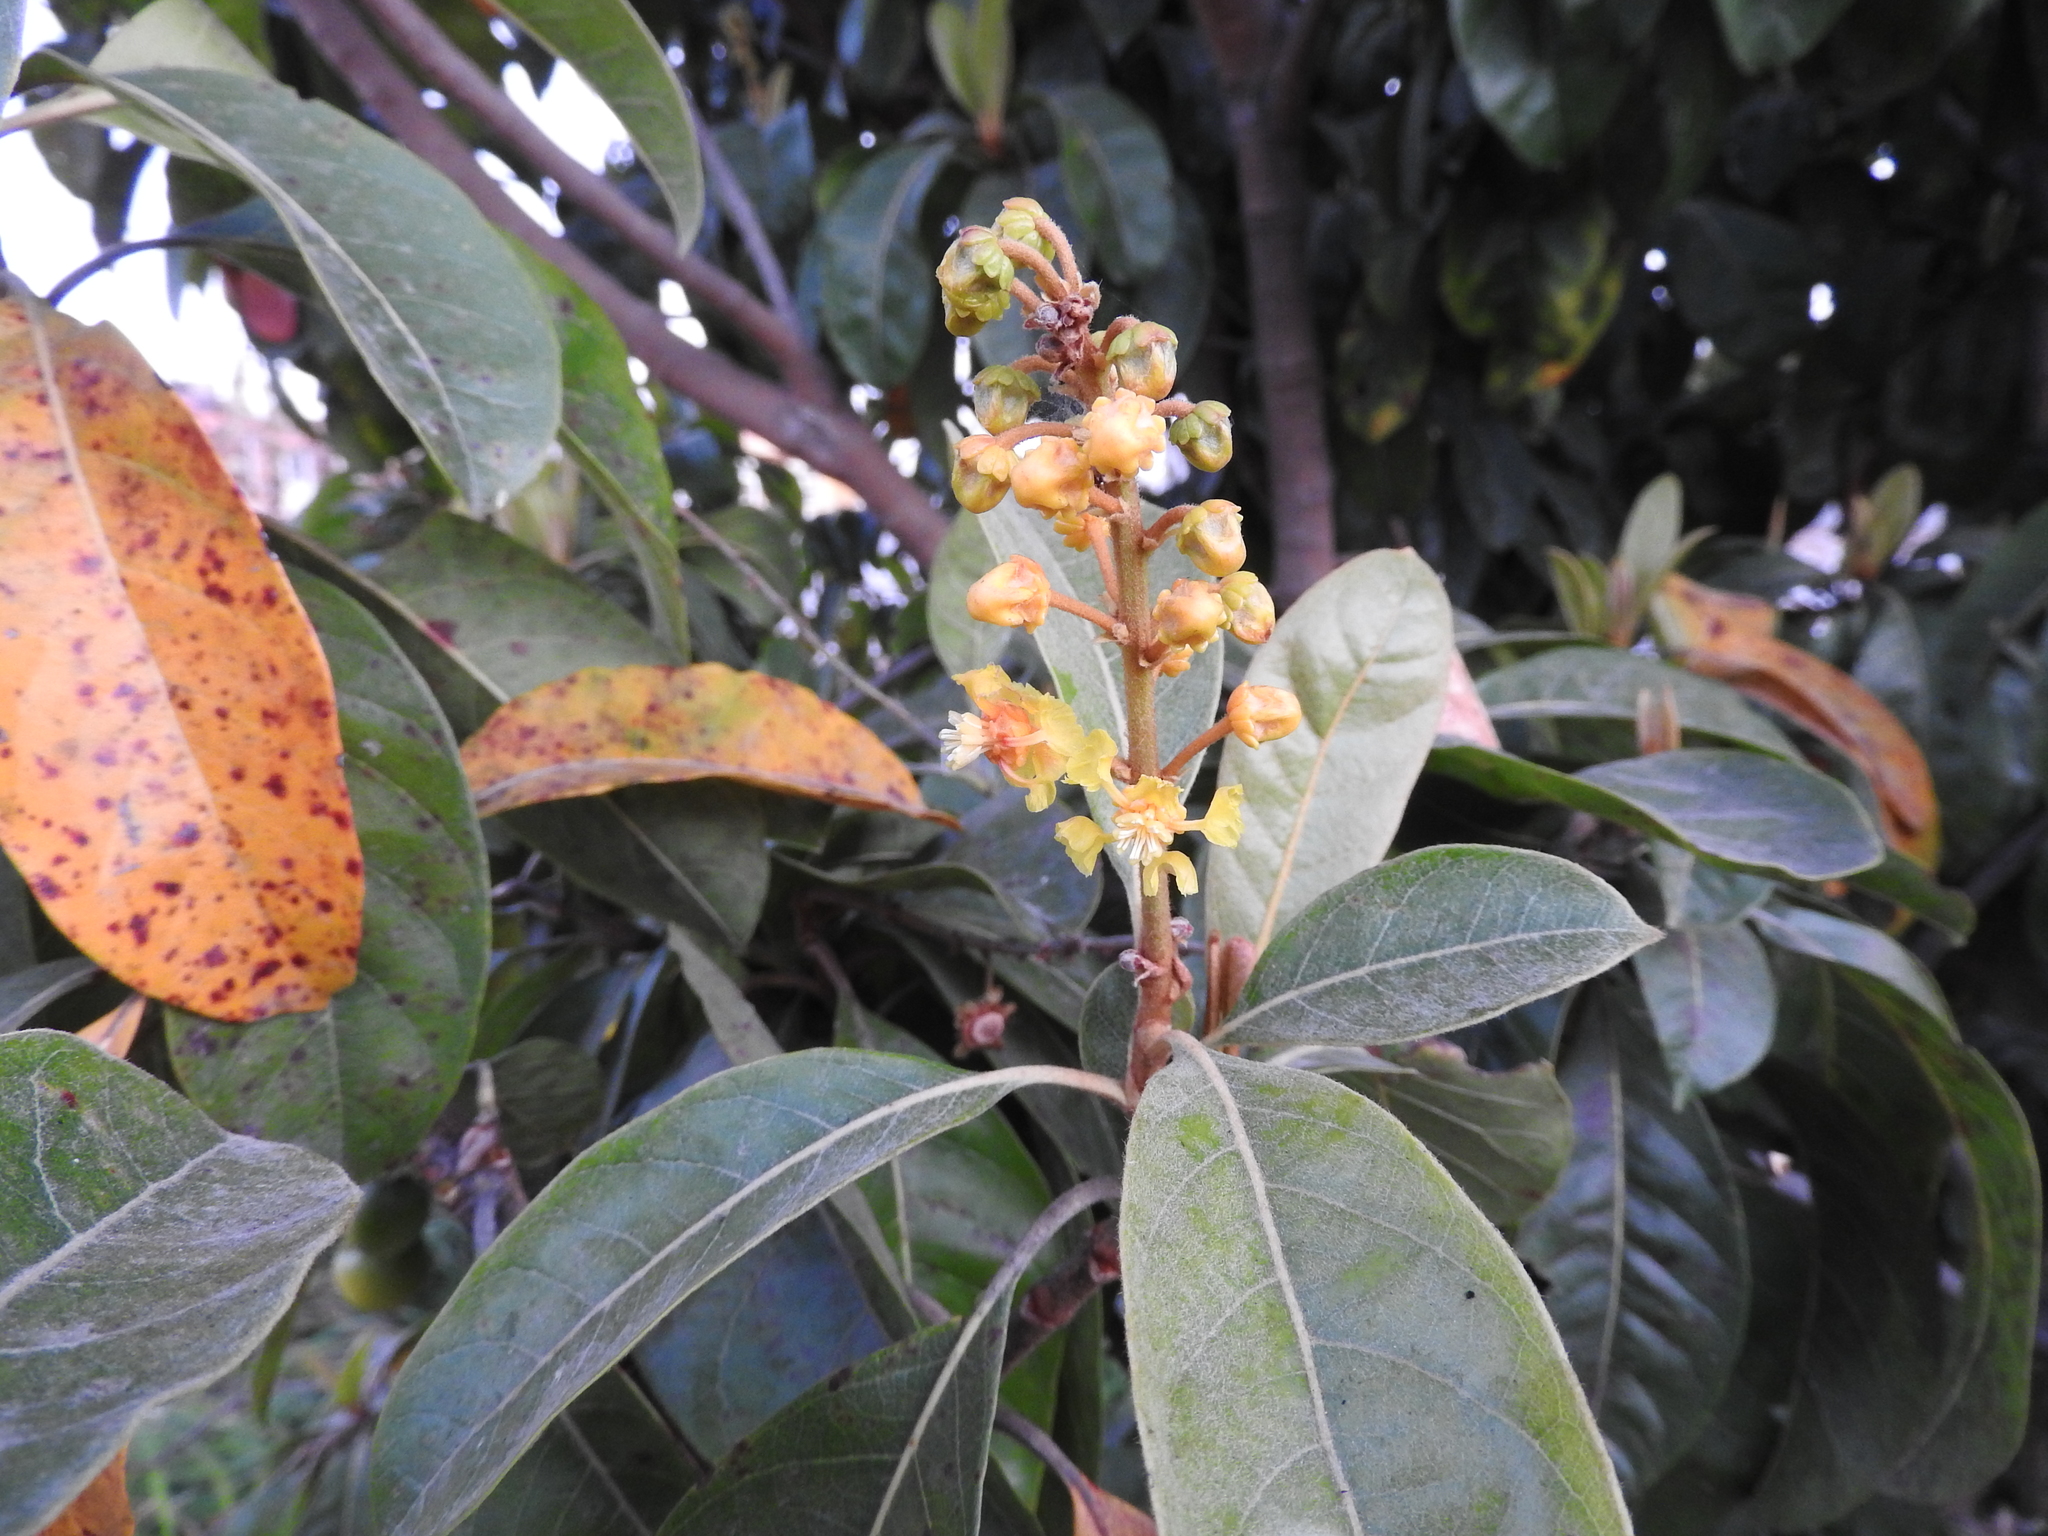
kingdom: Plantae
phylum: Tracheophyta
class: Magnoliopsida
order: Malpighiales
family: Malpighiaceae
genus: Byrsonima
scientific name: Byrsonima crassifolia
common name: Golden spoon
